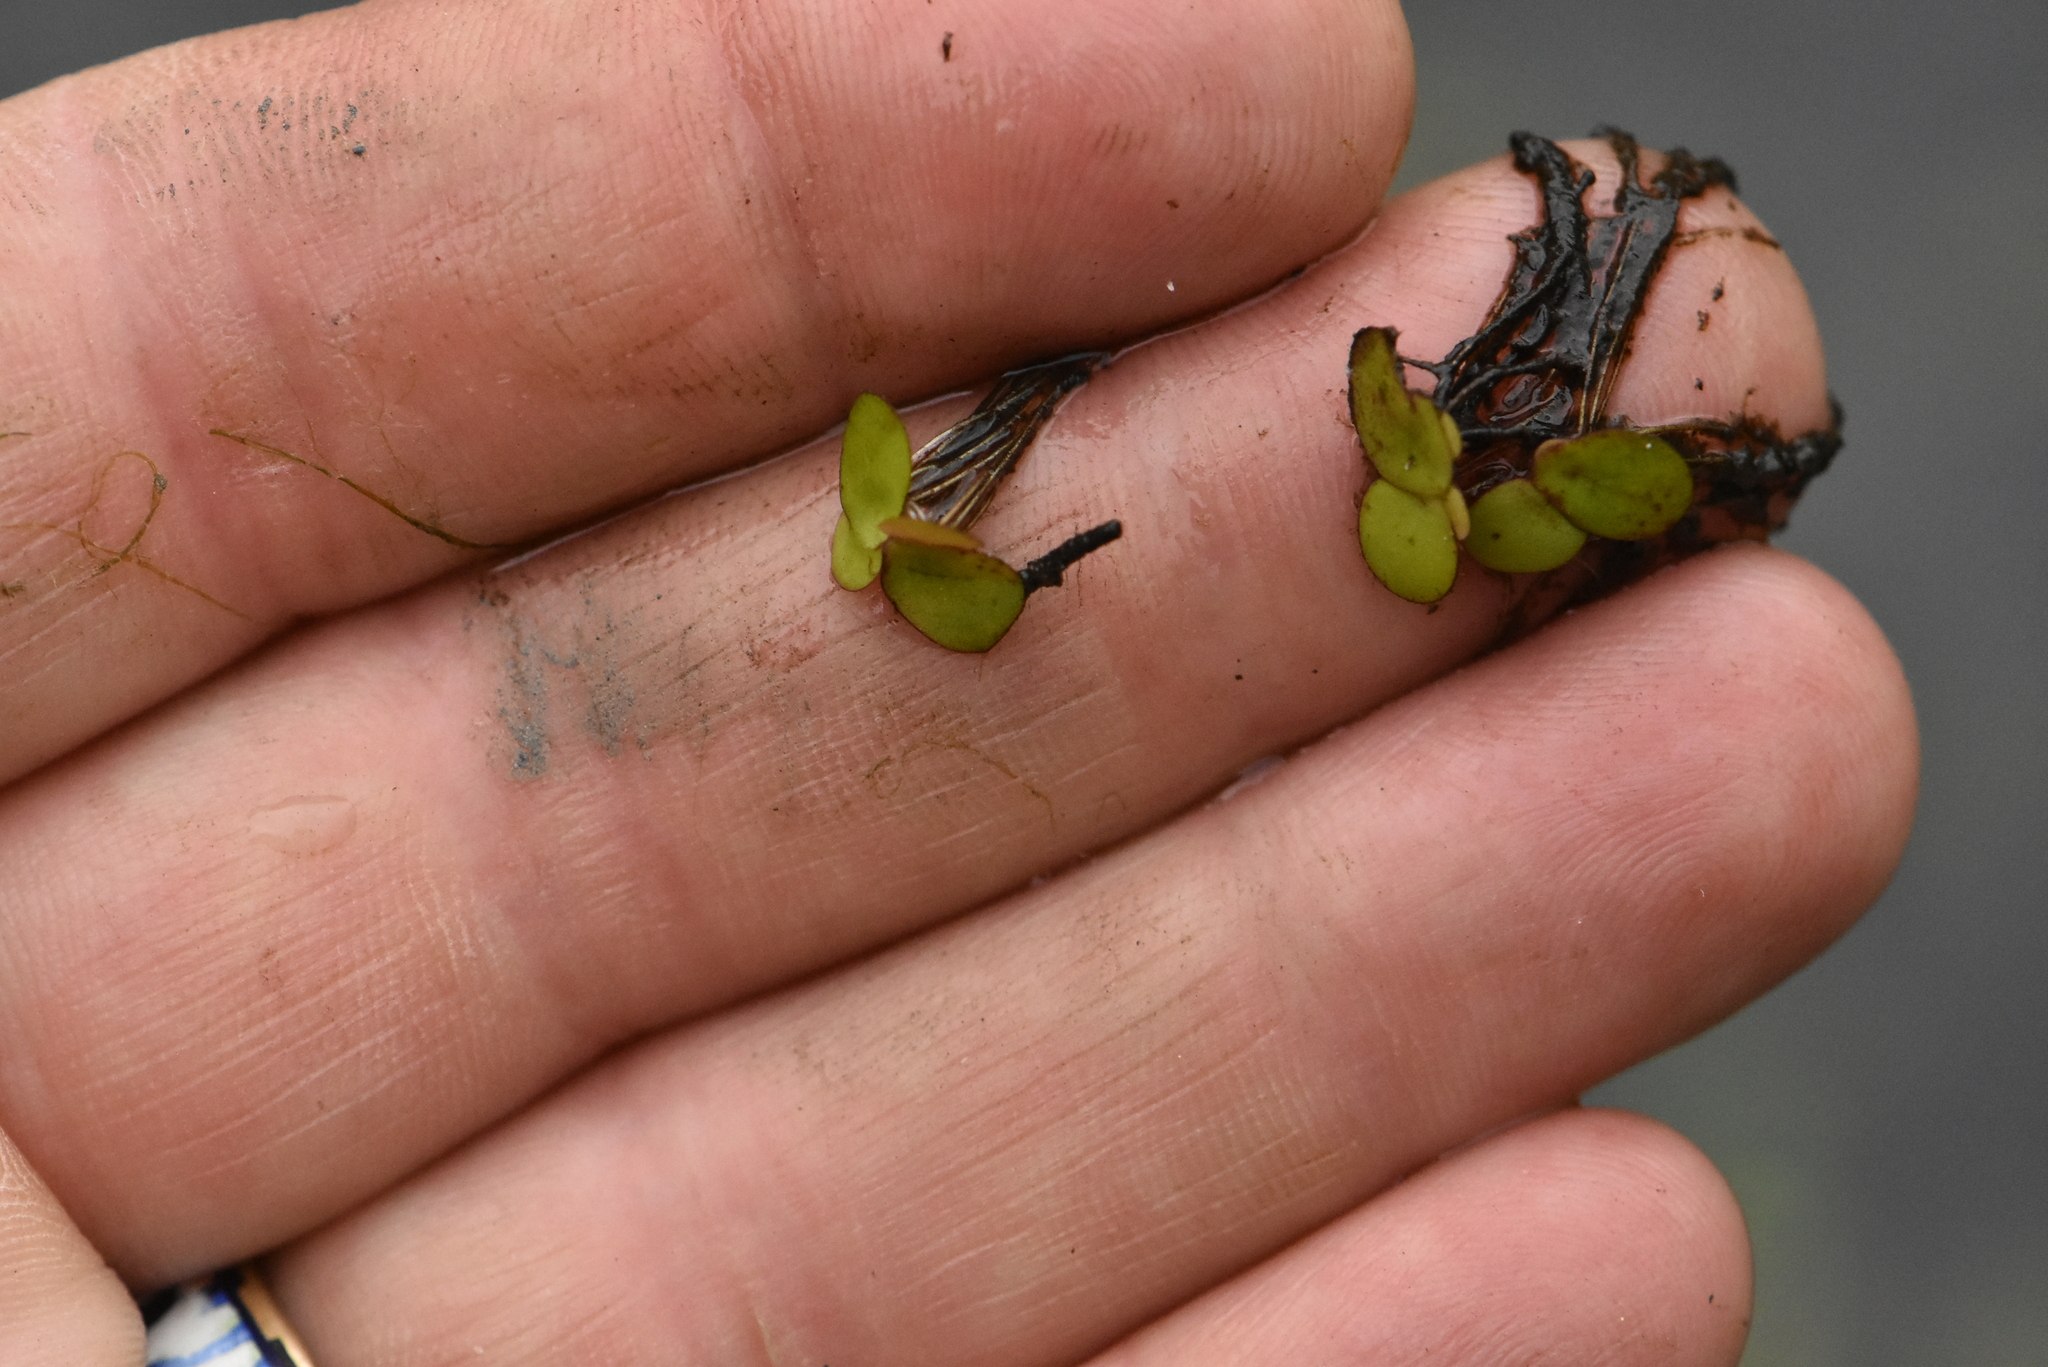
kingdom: Plantae
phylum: Tracheophyta
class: Liliopsida
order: Alismatales
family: Araceae
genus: Spirodela
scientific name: Spirodela polyrhiza
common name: Great duckweed
